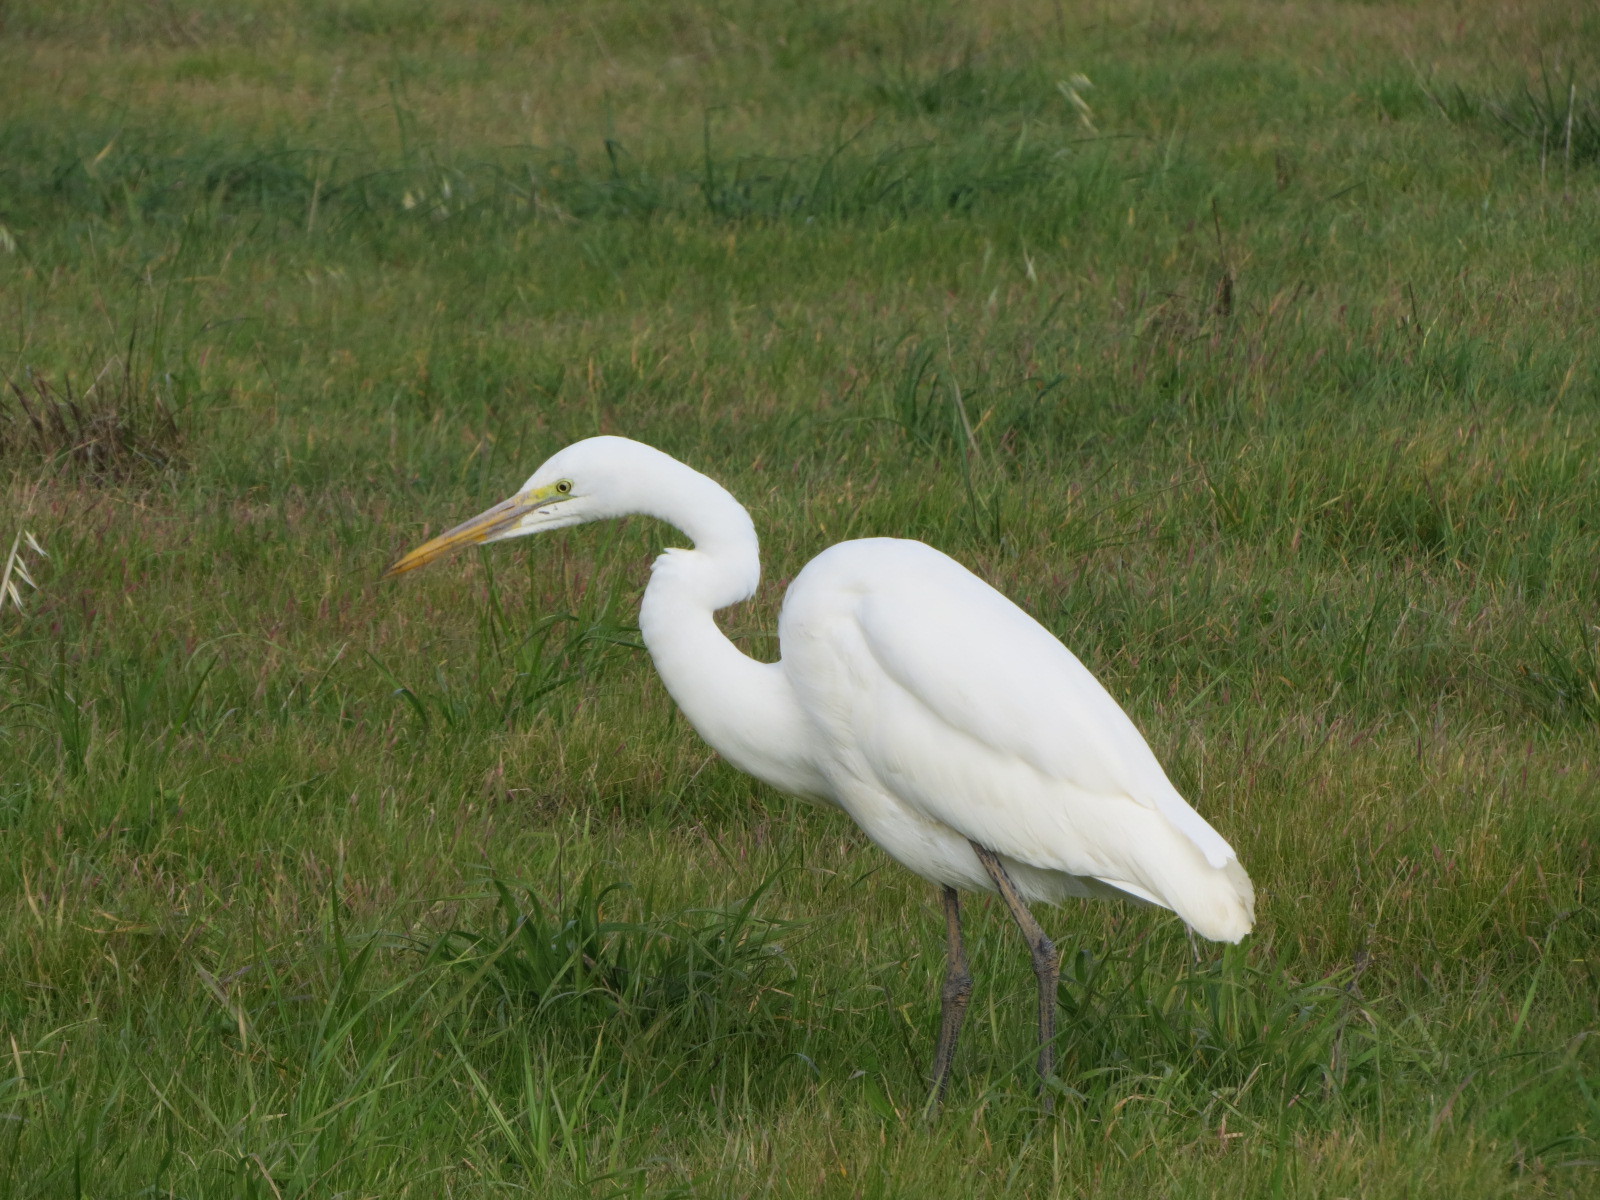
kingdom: Animalia
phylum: Chordata
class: Aves
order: Pelecaniformes
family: Ardeidae
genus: Ardea
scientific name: Ardea alba
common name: Great egret
